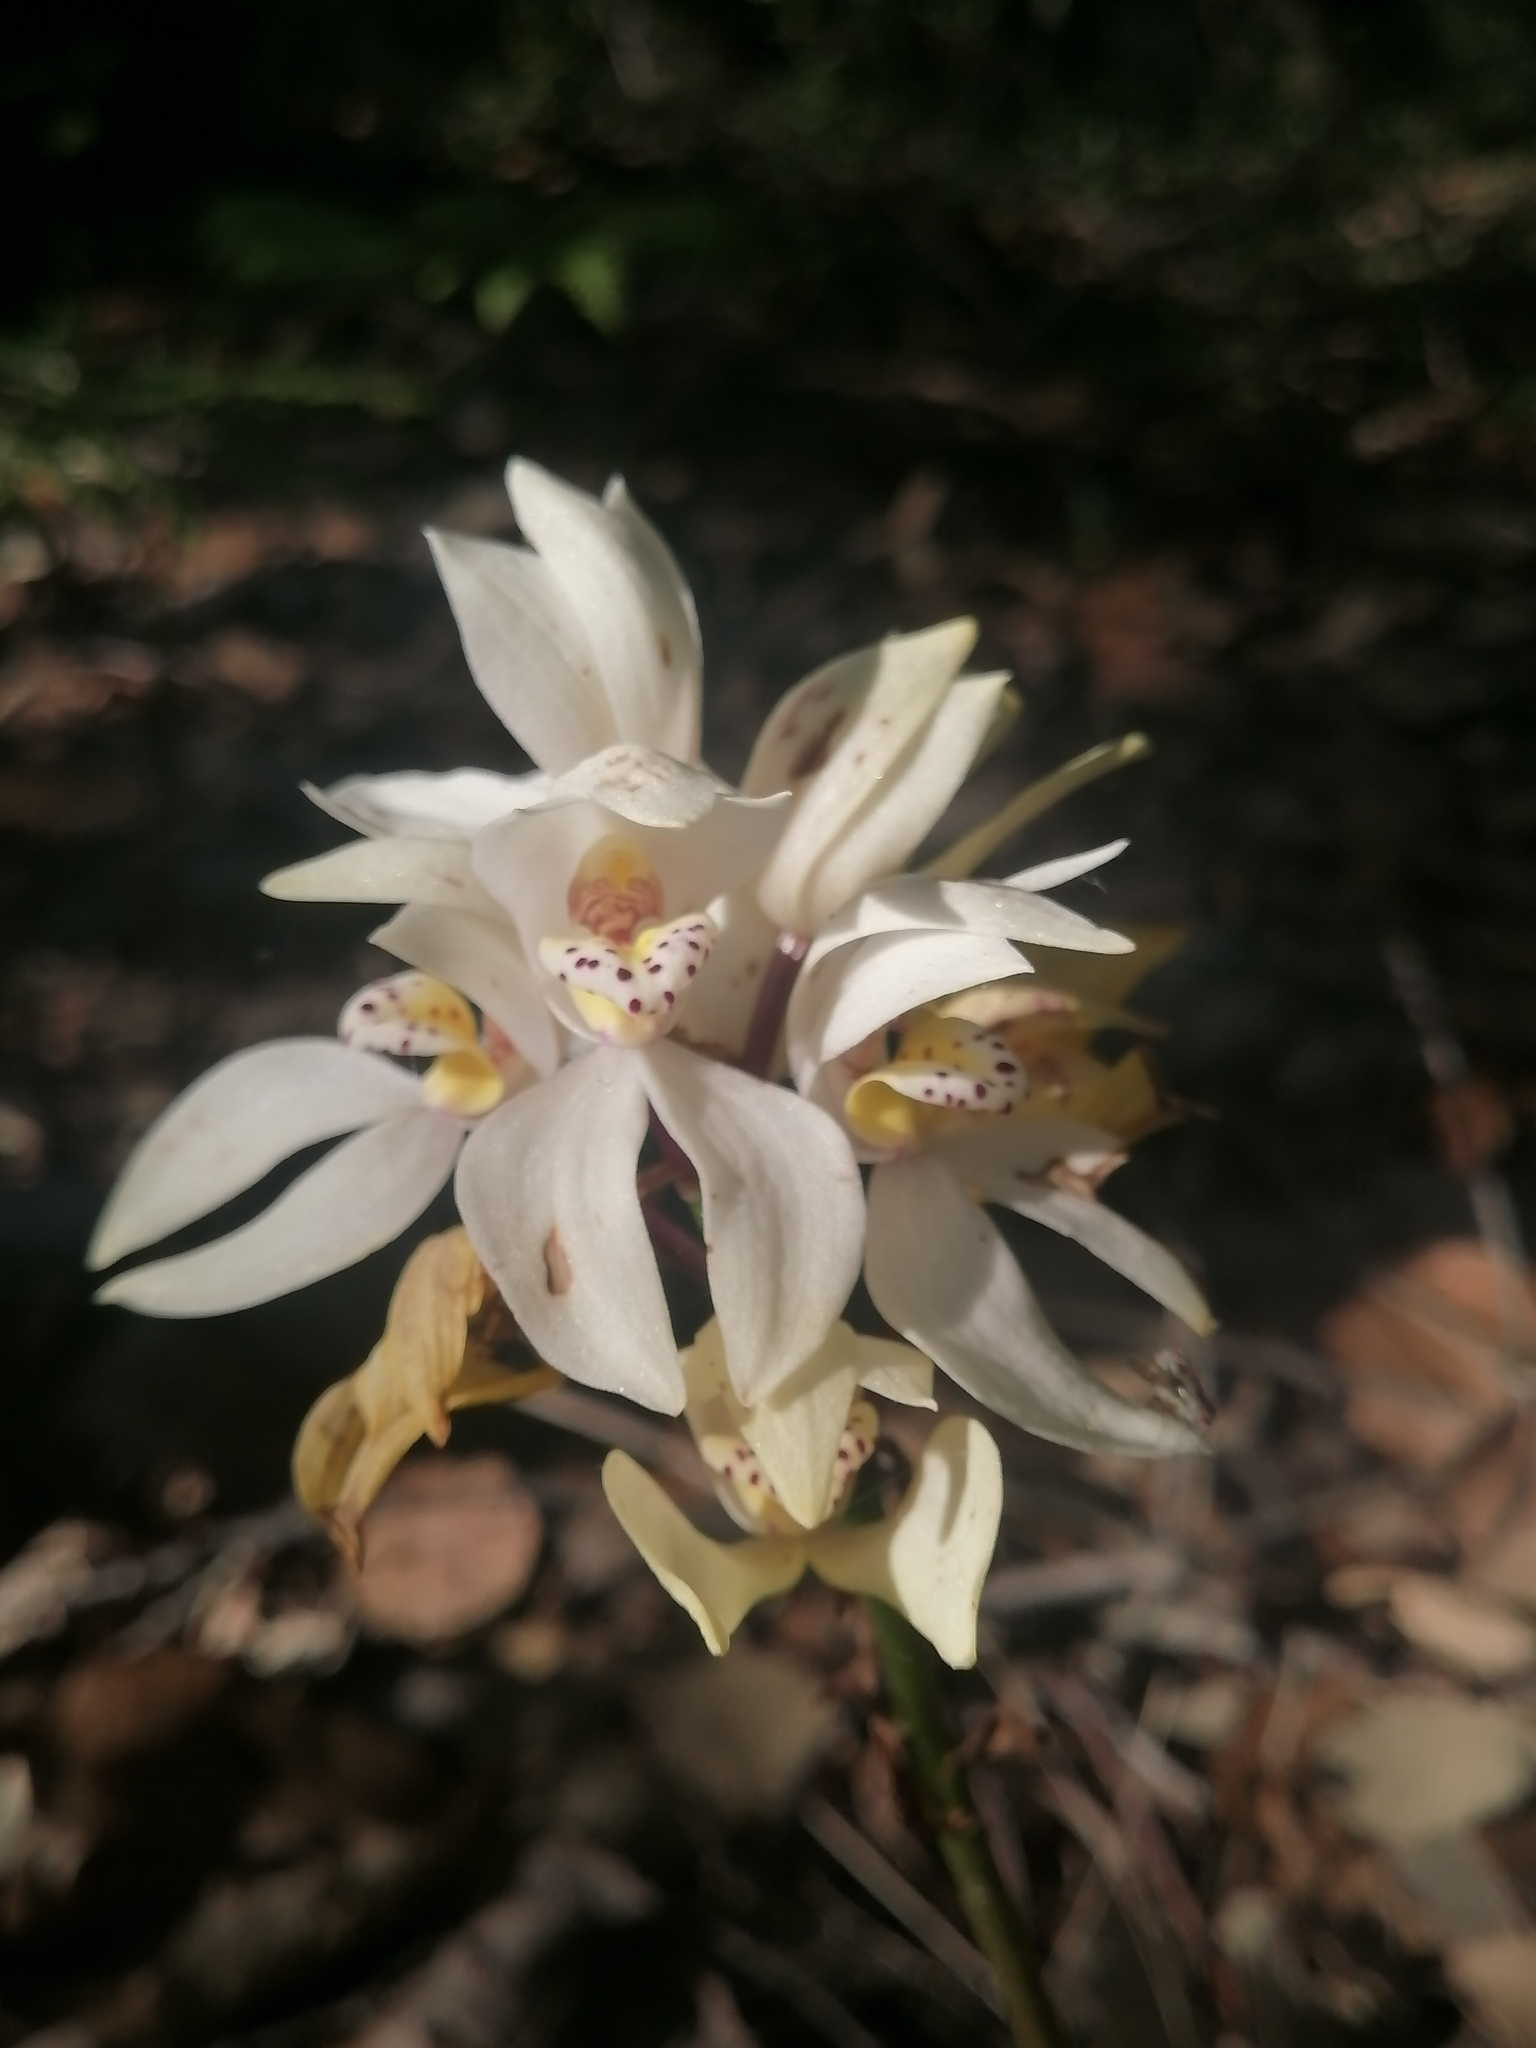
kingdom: Plantae
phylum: Tracheophyta
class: Liliopsida
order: Asparagales
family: Orchidaceae
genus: Govenia
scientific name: Govenia capitata
